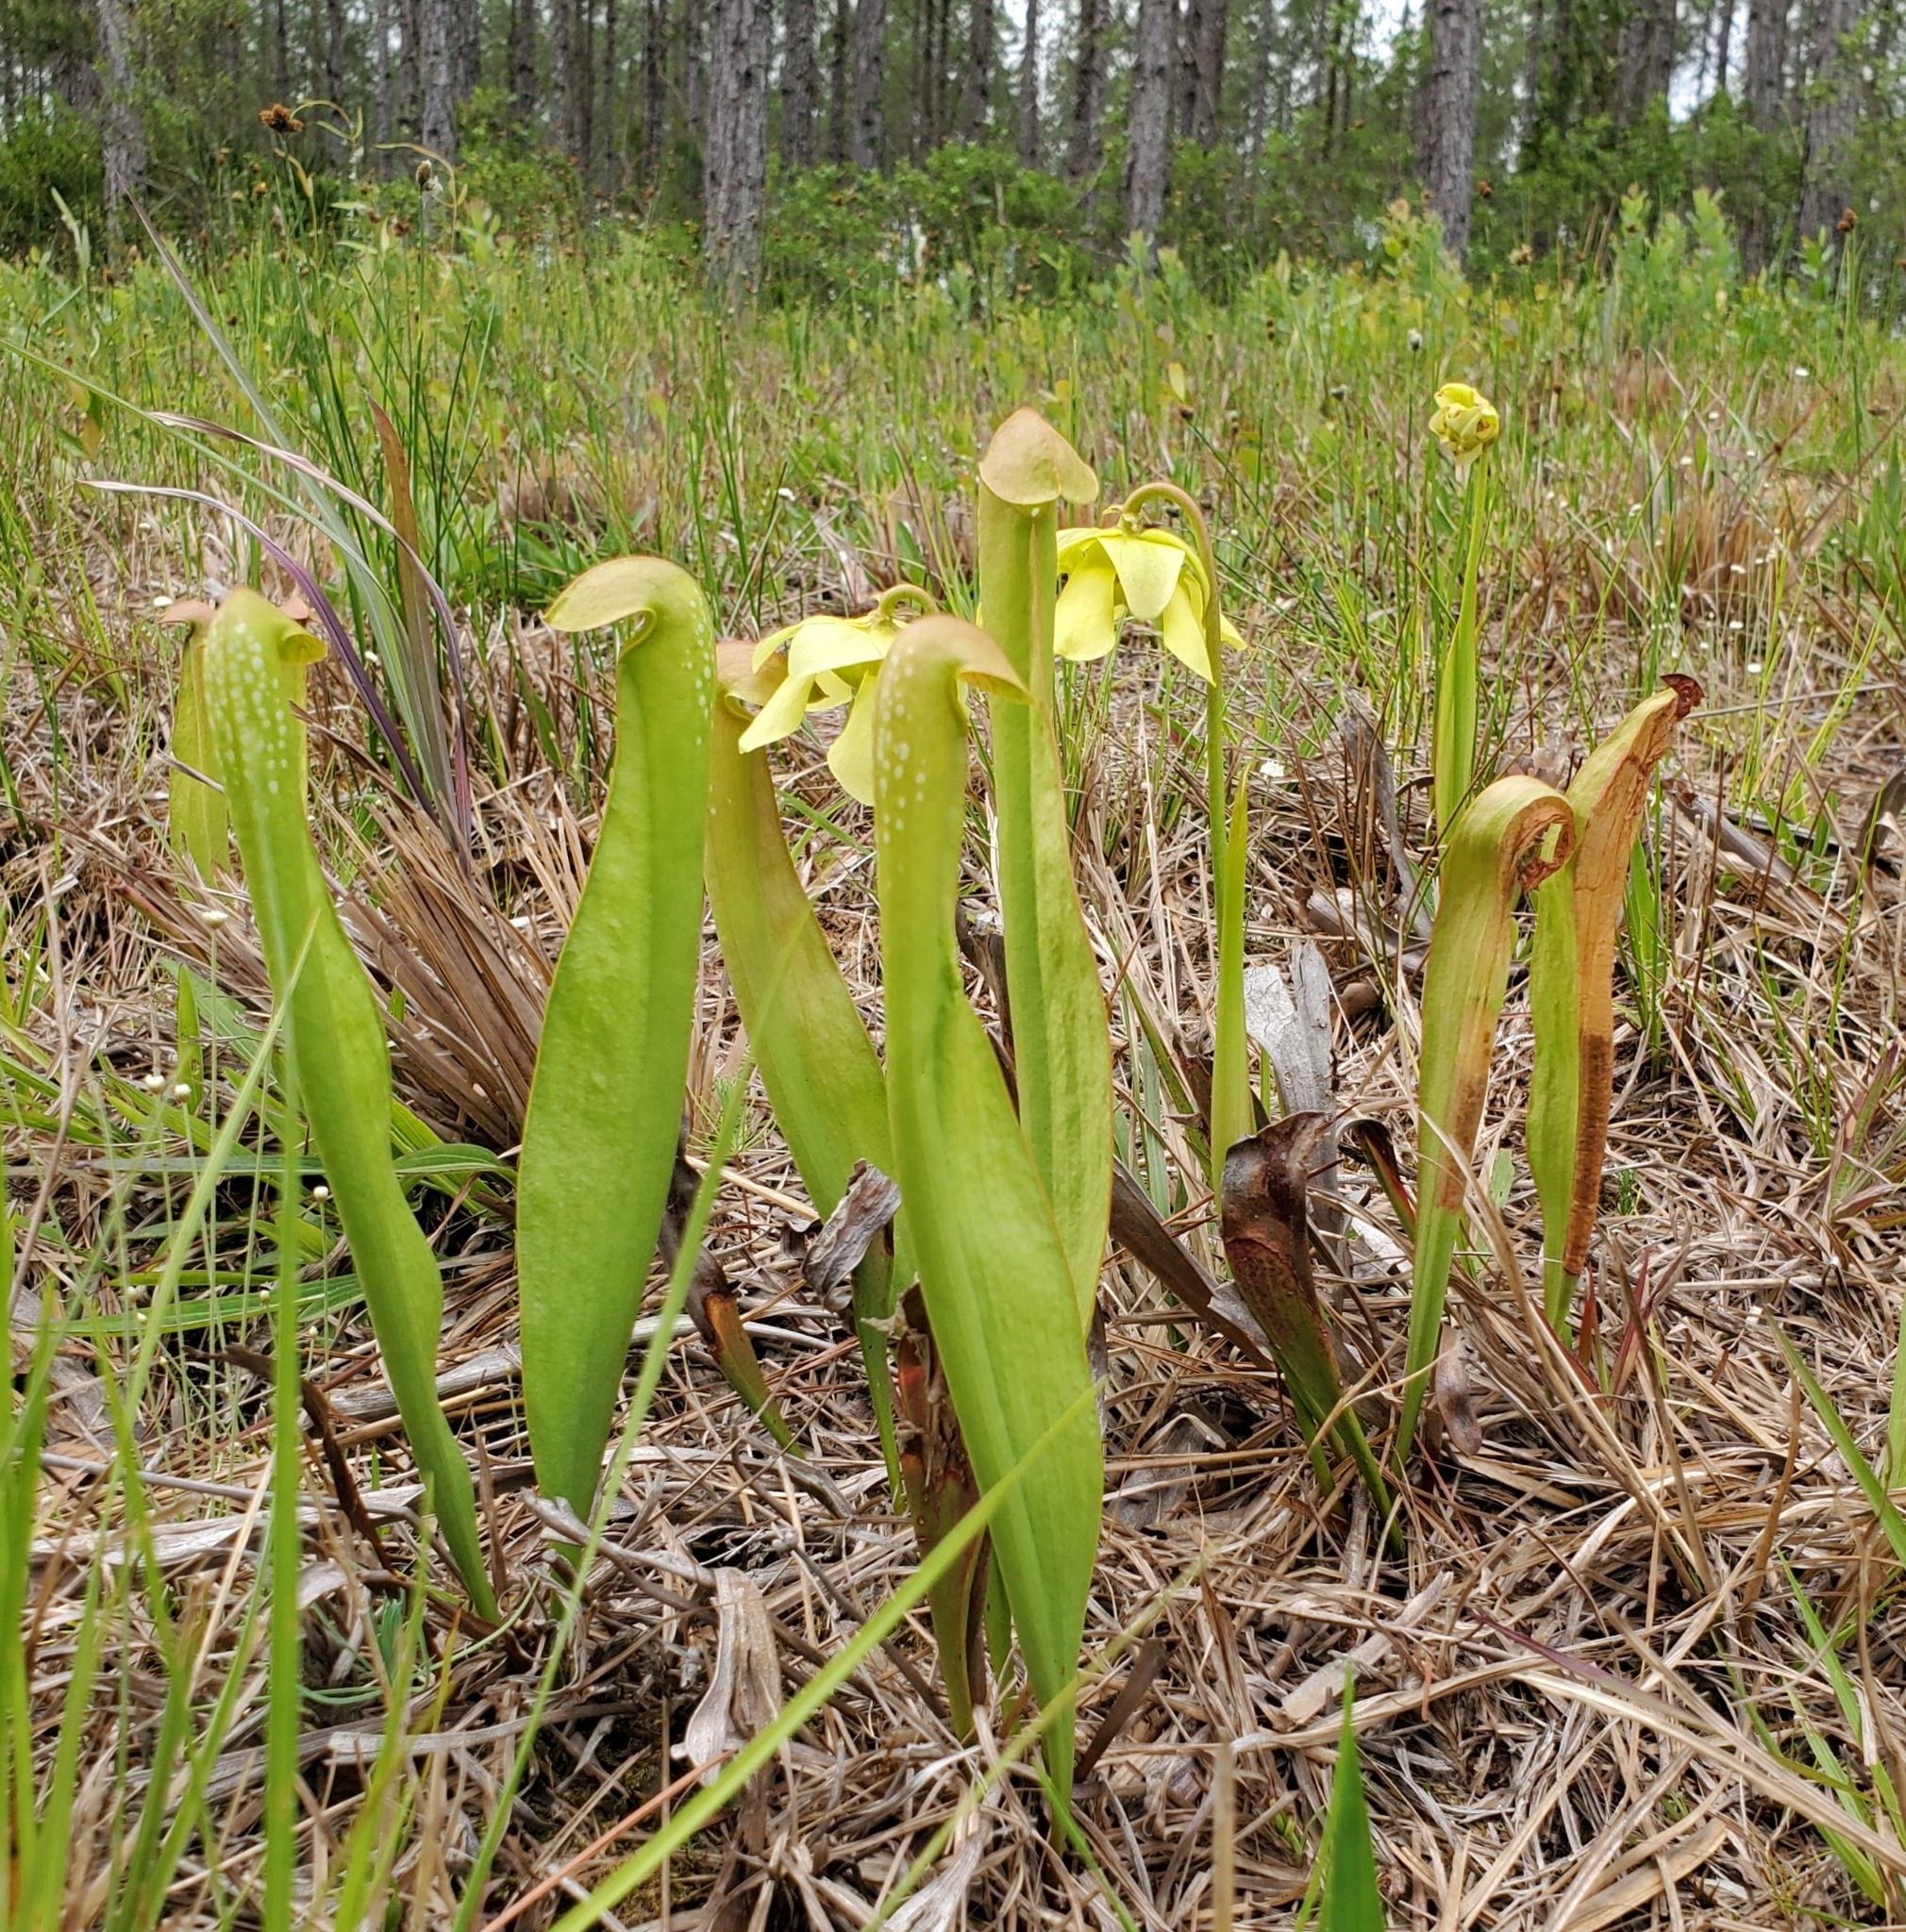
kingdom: Plantae
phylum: Tracheophyta
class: Magnoliopsida
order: Ericales
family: Sarraceniaceae
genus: Sarracenia
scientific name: Sarracenia minor
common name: Rainhat-trumpet
